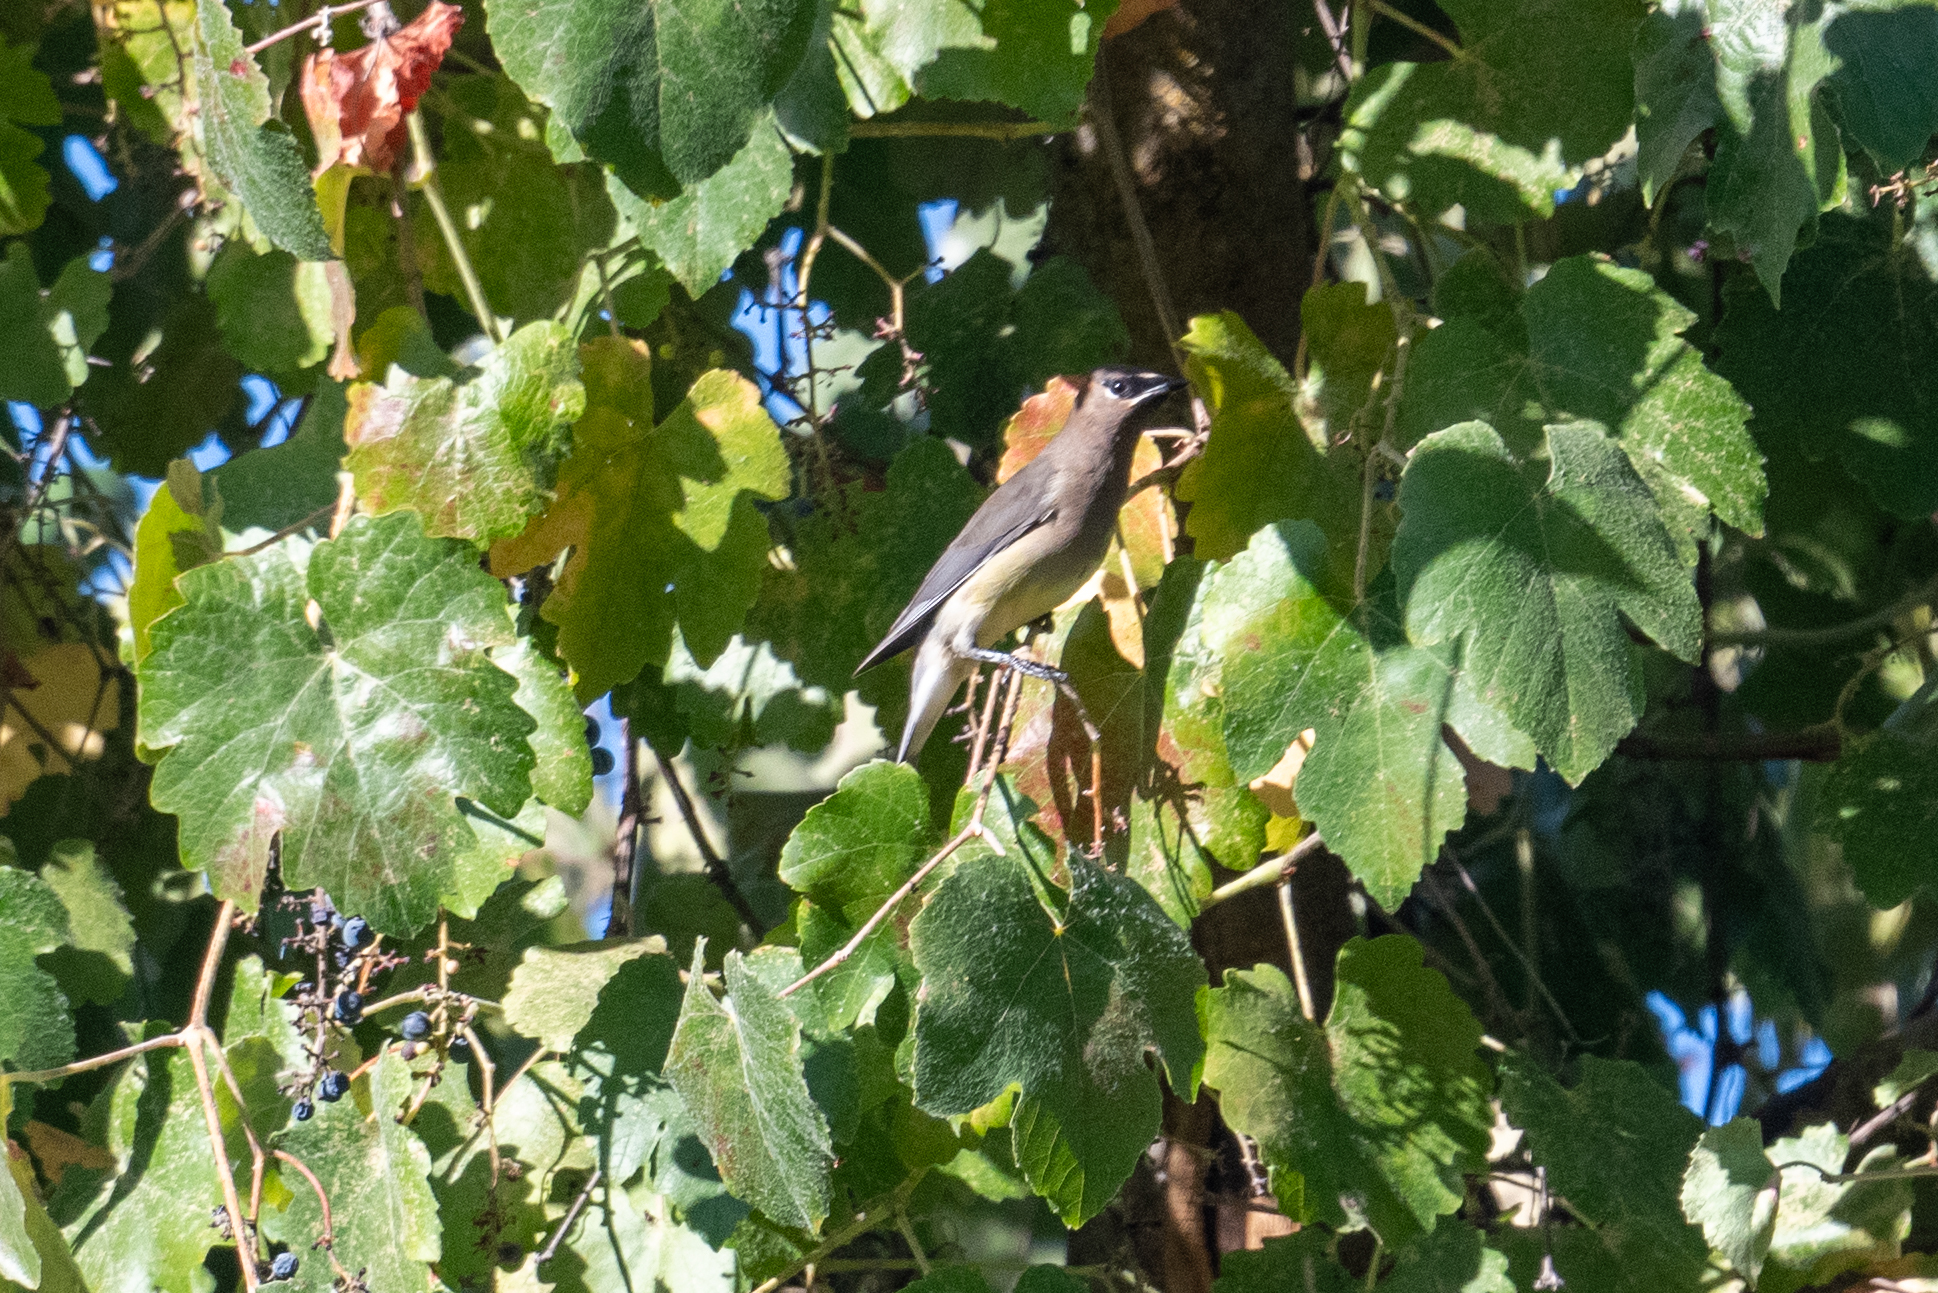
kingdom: Animalia
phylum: Chordata
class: Aves
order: Passeriformes
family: Bombycillidae
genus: Bombycilla
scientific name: Bombycilla cedrorum
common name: Cedar waxwing
